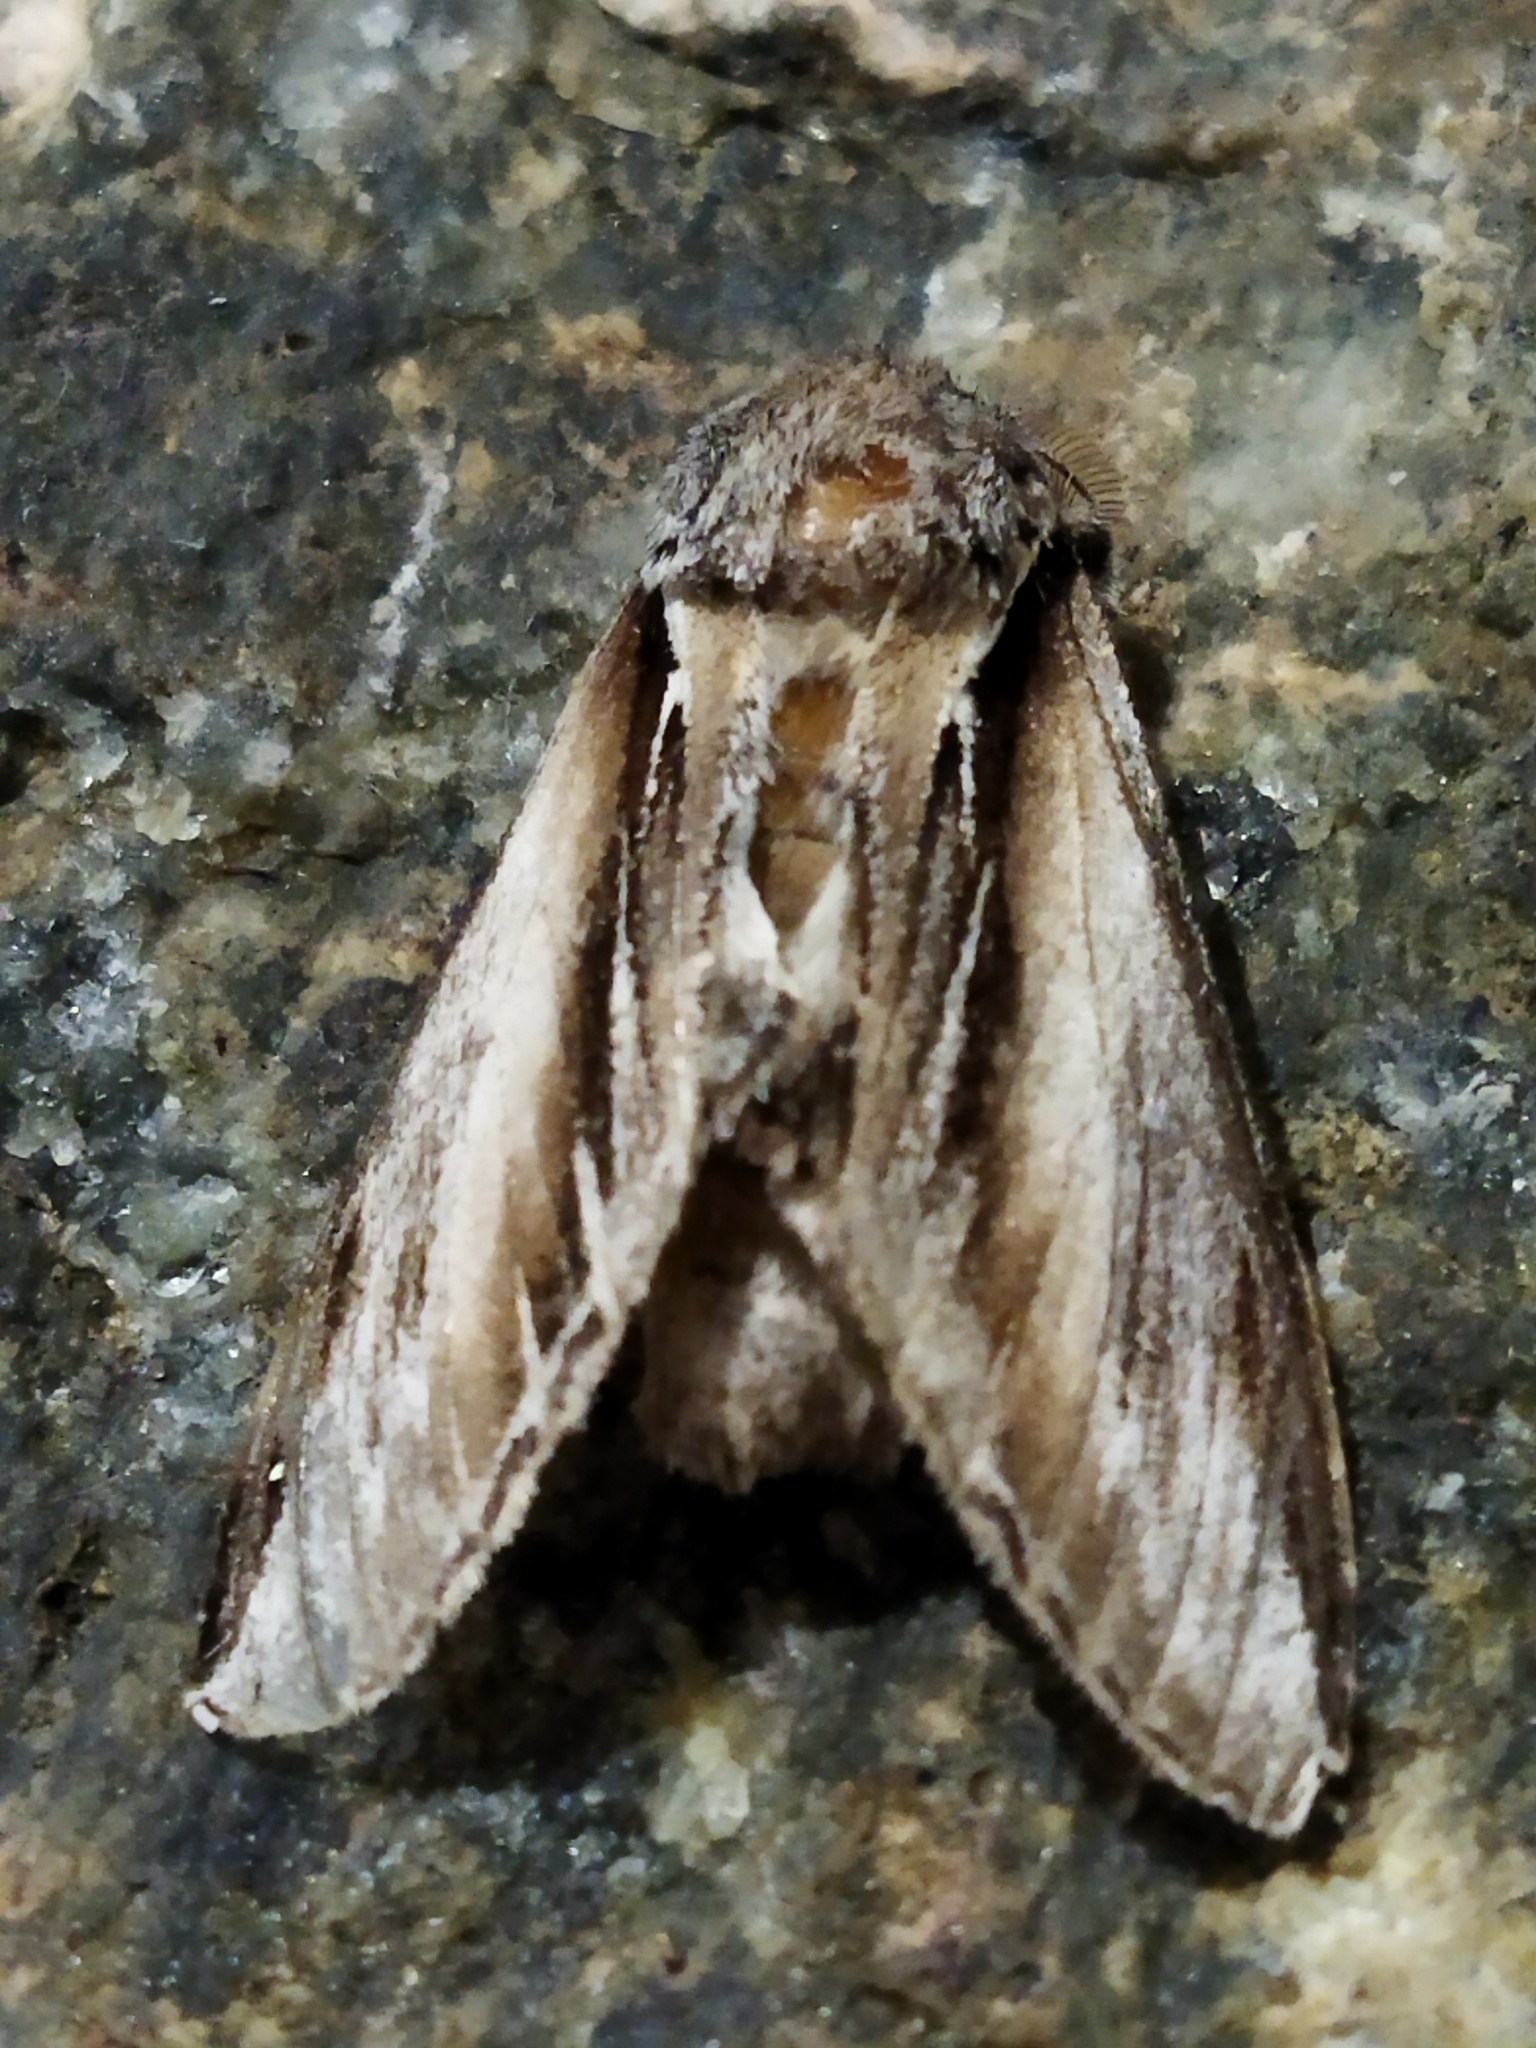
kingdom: Animalia
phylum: Arthropoda
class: Insecta
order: Lepidoptera
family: Notodontidae
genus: Pheosia
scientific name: Pheosia tremula
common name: Swallow prominent
